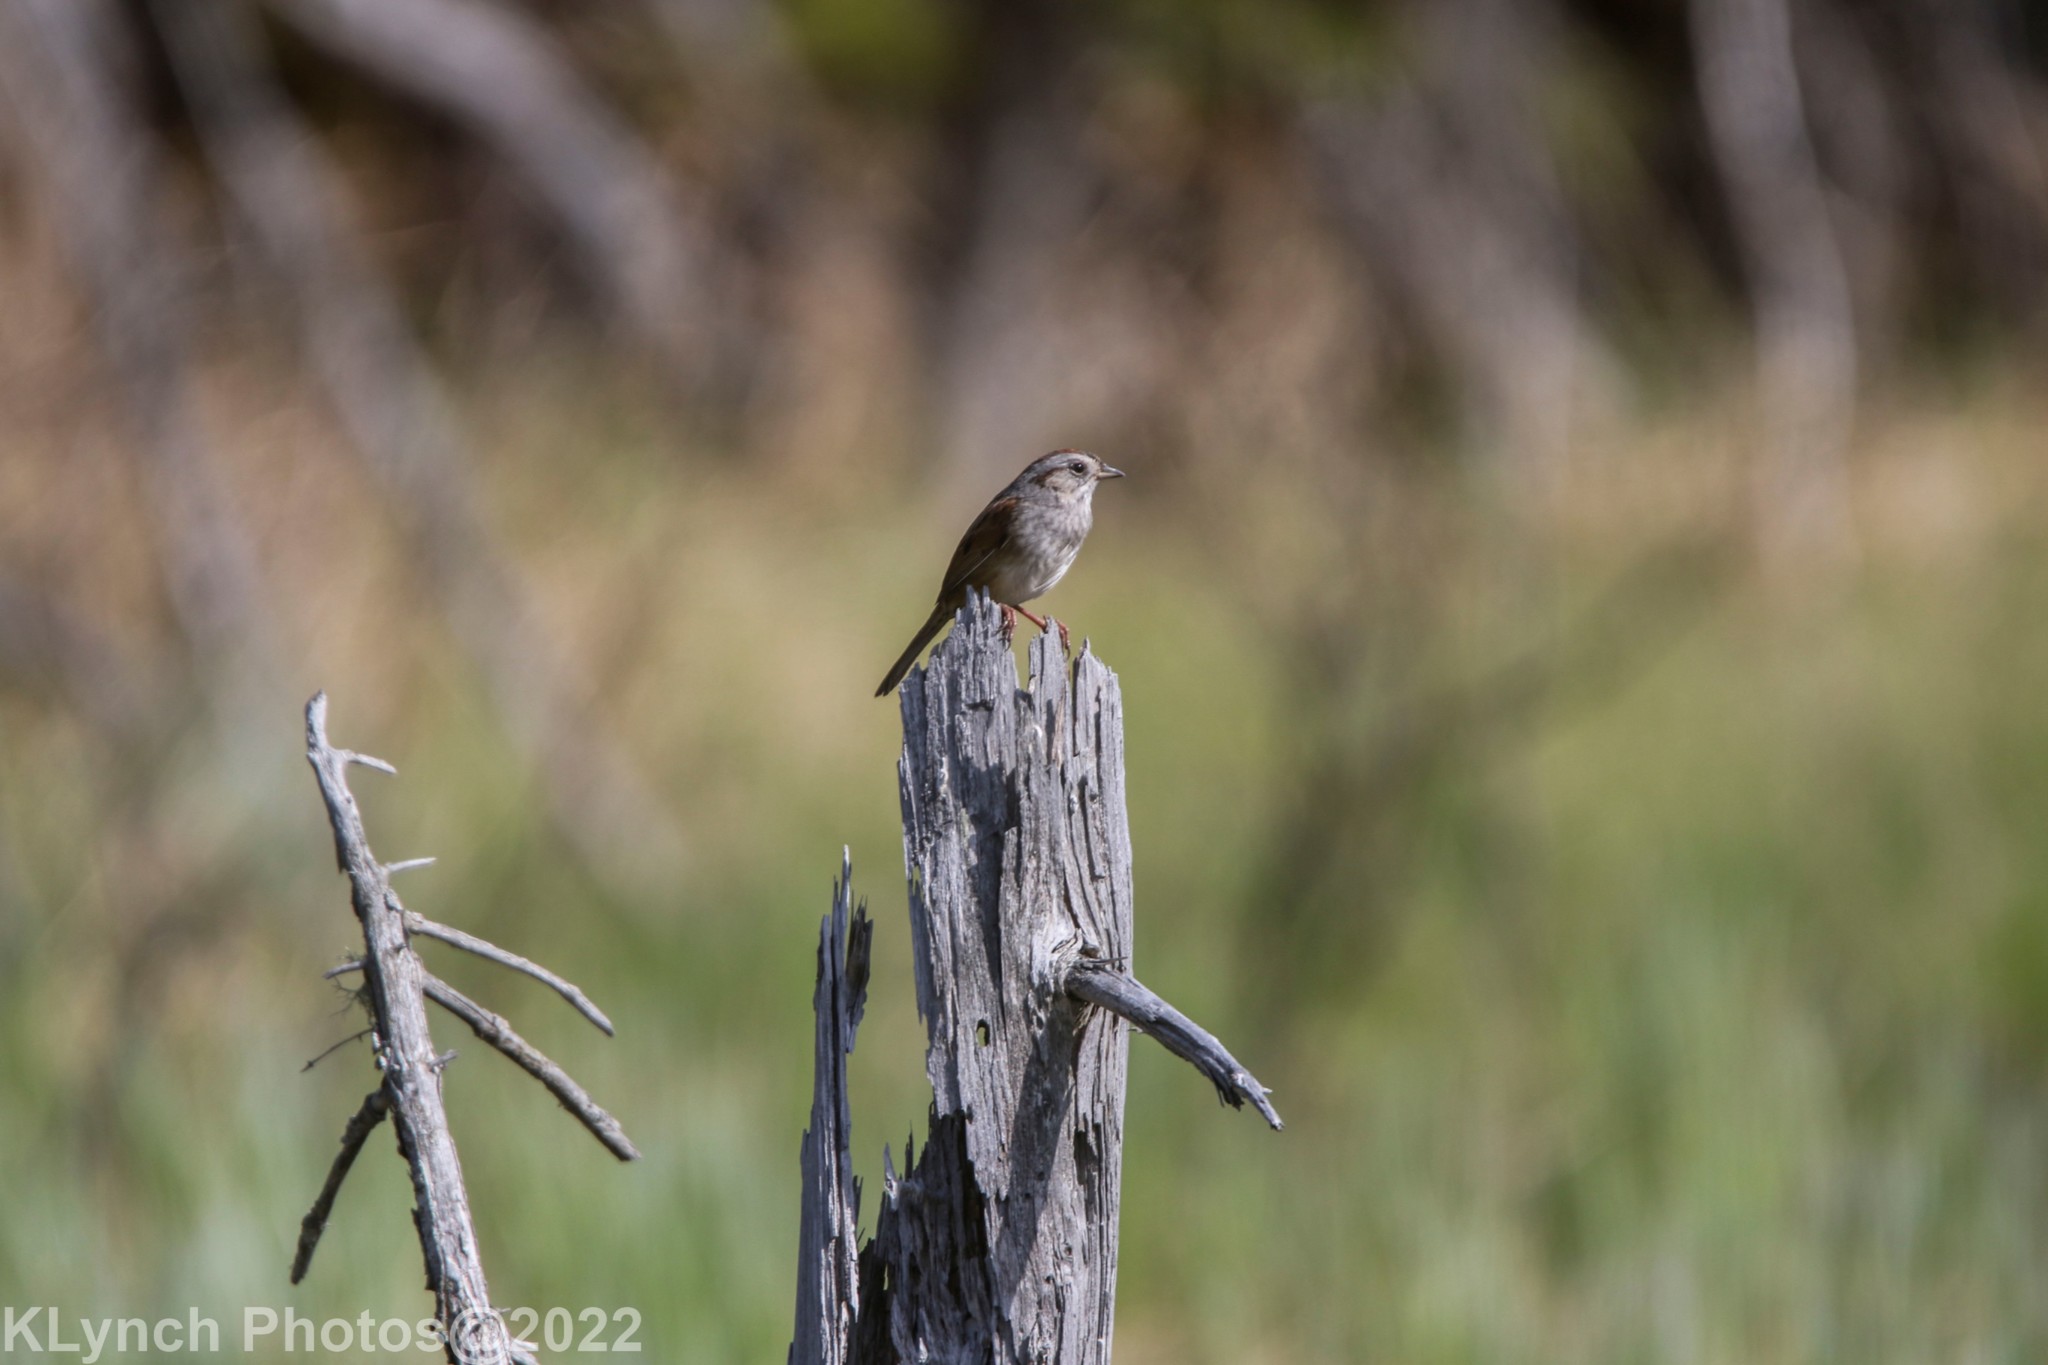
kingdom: Animalia
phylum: Chordata
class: Aves
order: Passeriformes
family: Passerellidae
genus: Melospiza
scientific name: Melospiza georgiana
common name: Swamp sparrow
